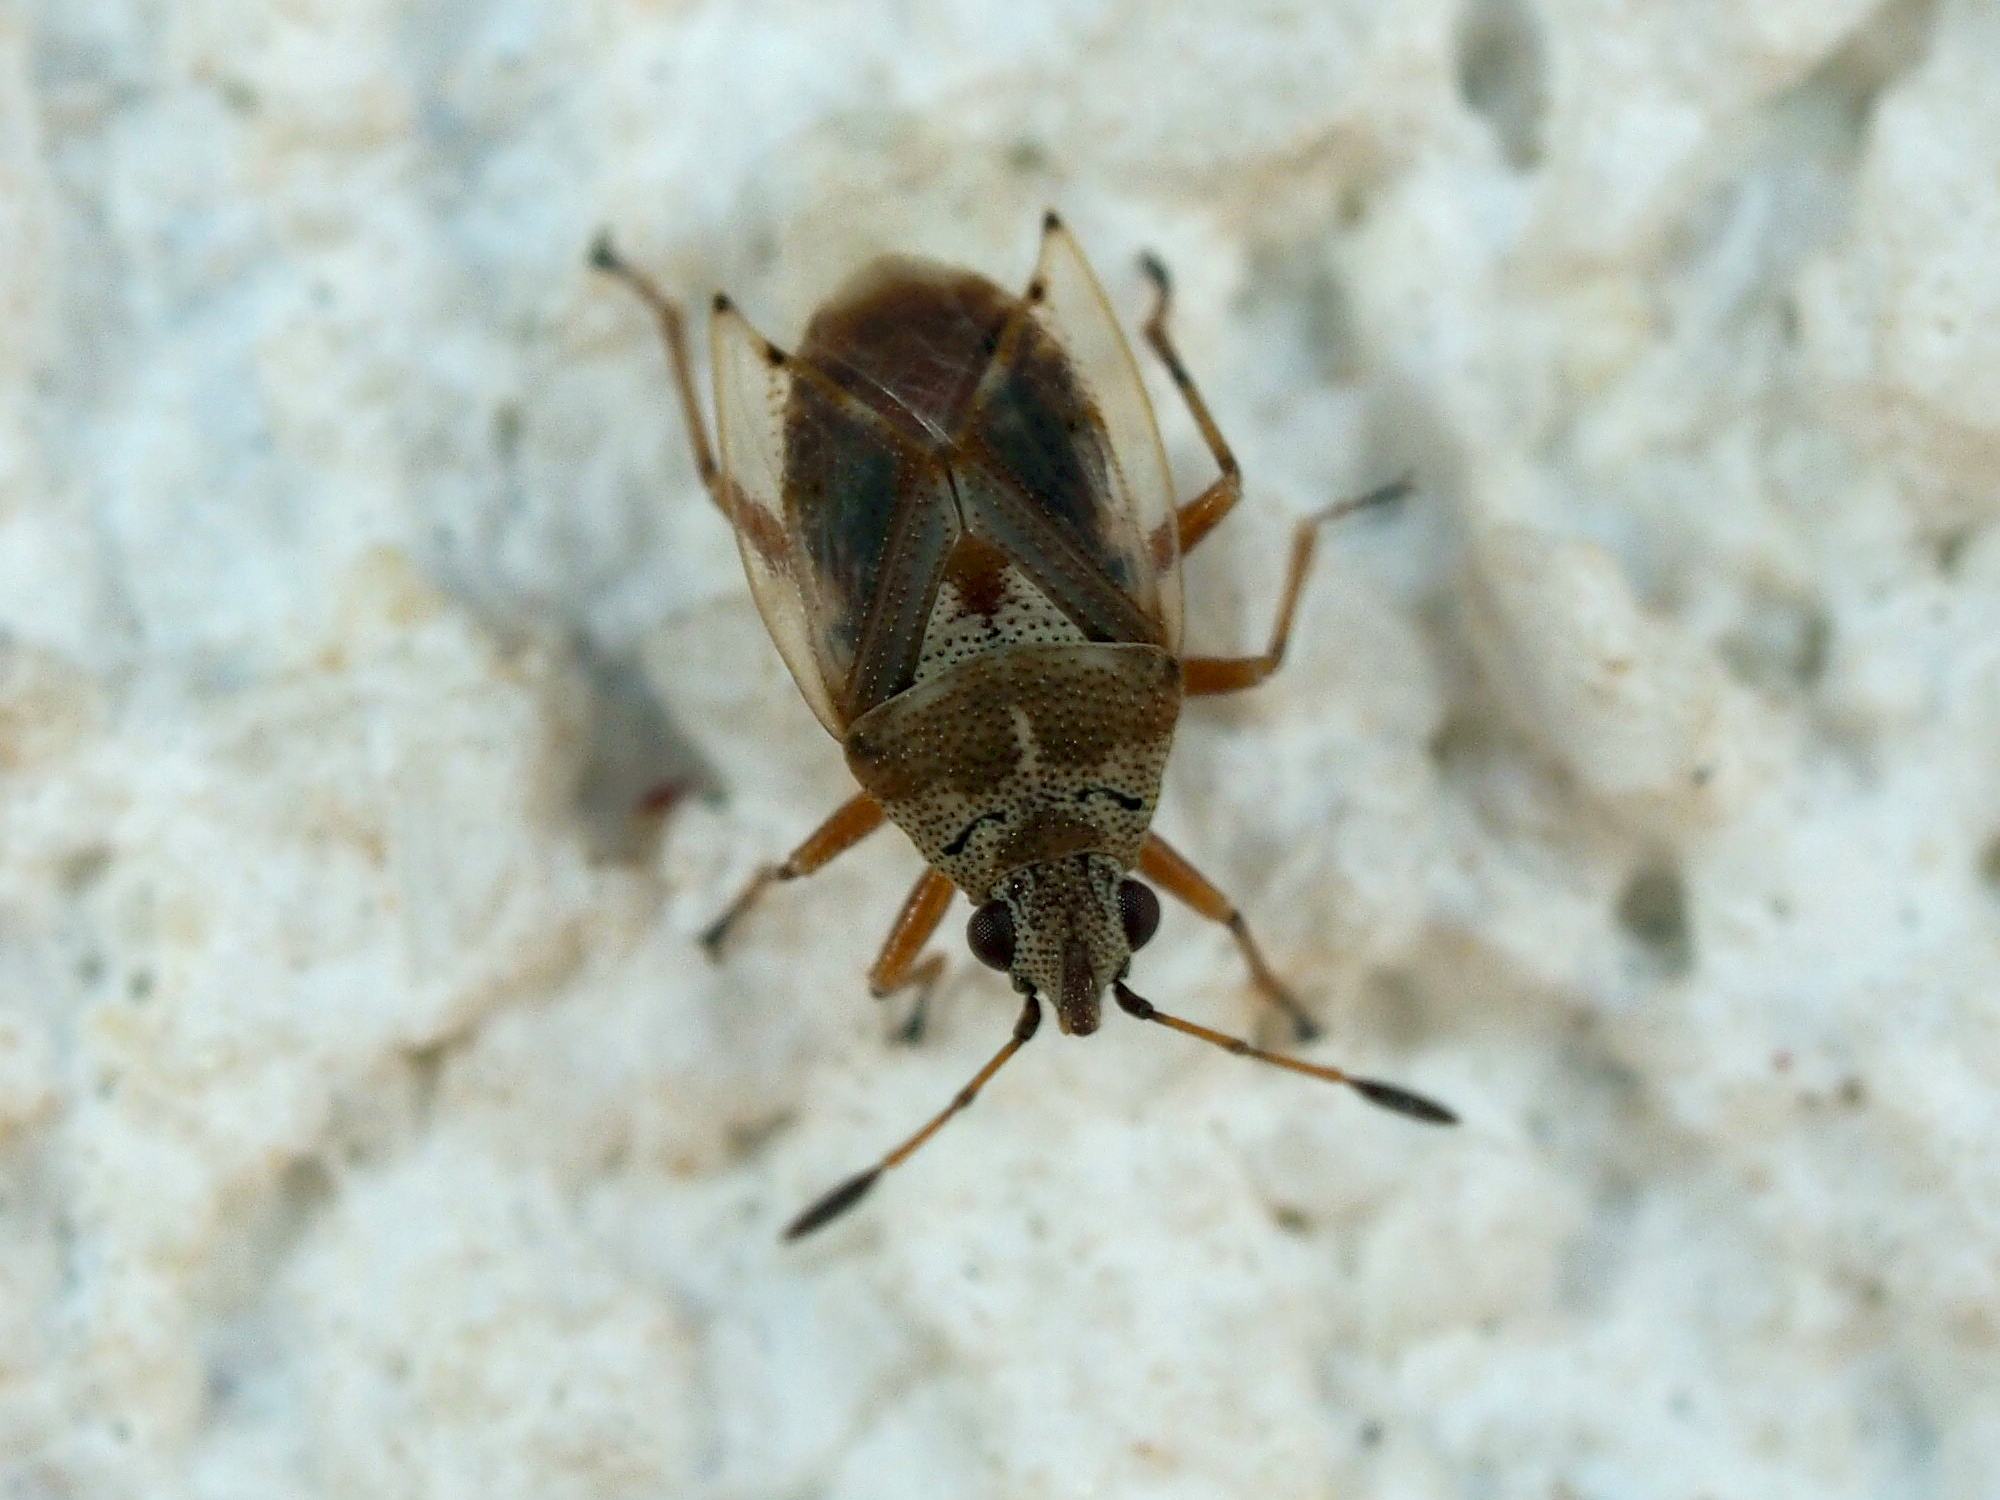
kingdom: Animalia
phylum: Arthropoda
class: Insecta
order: Hemiptera
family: Lygaeidae
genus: Kleidocerys
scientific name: Kleidocerys ericae
